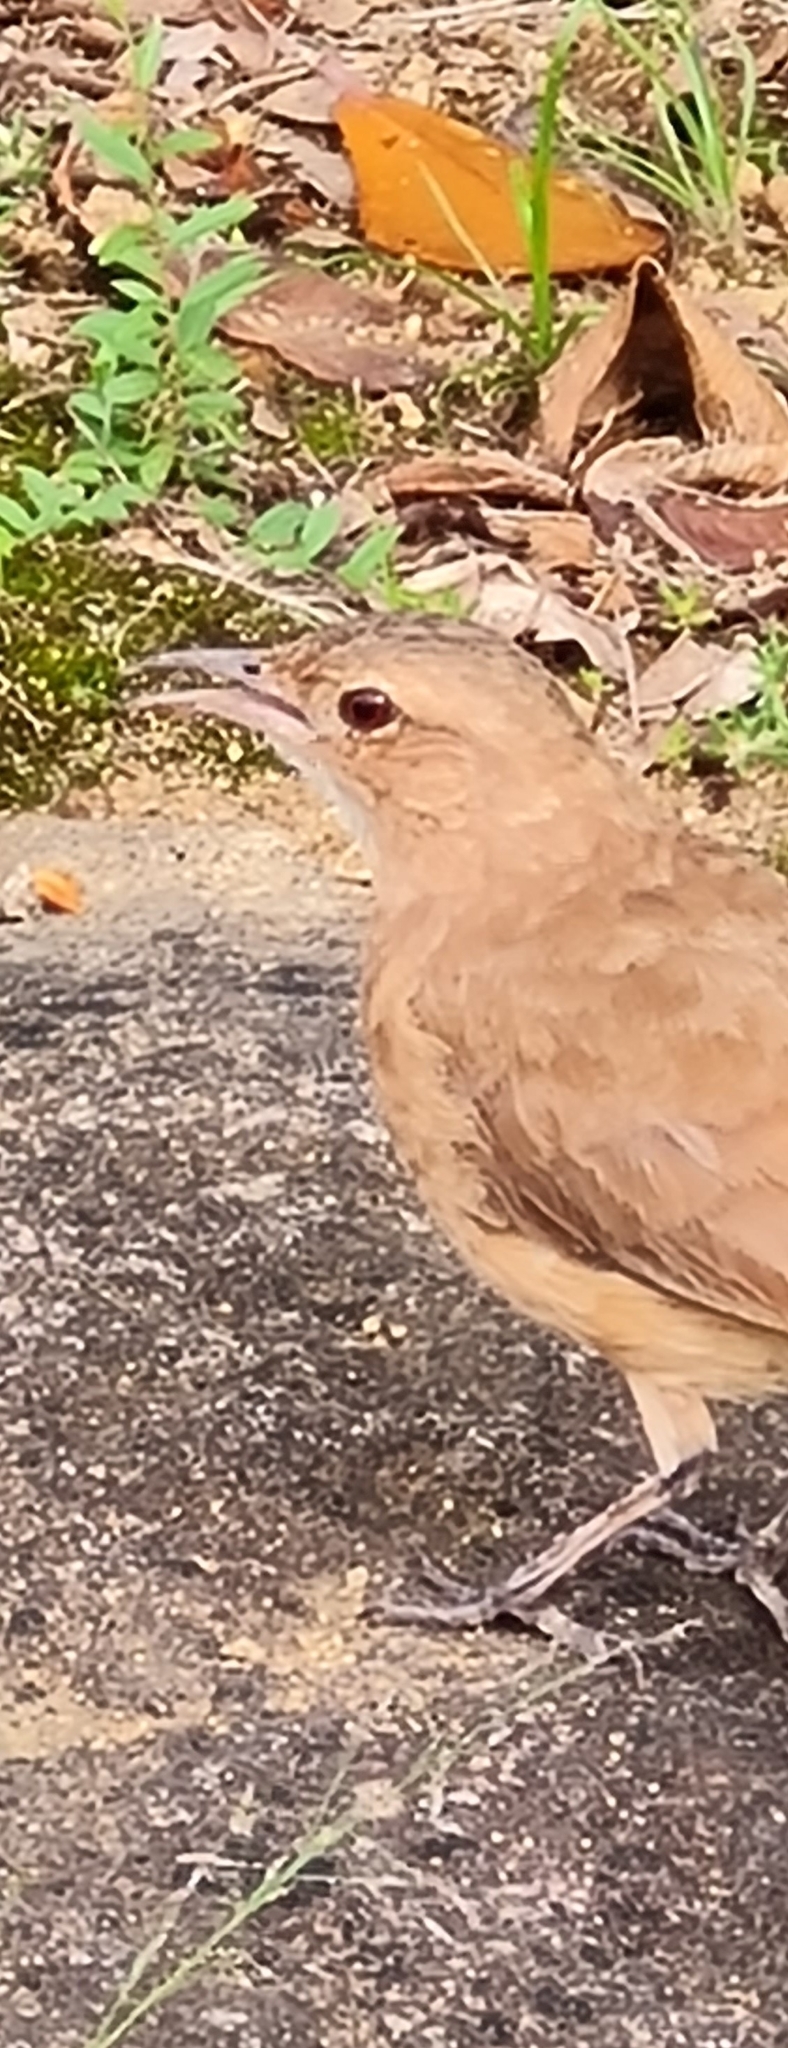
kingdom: Animalia
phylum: Chordata
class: Aves
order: Passeriformes
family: Furnariidae
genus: Furnarius
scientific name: Furnarius rufus
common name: Rufous hornero
